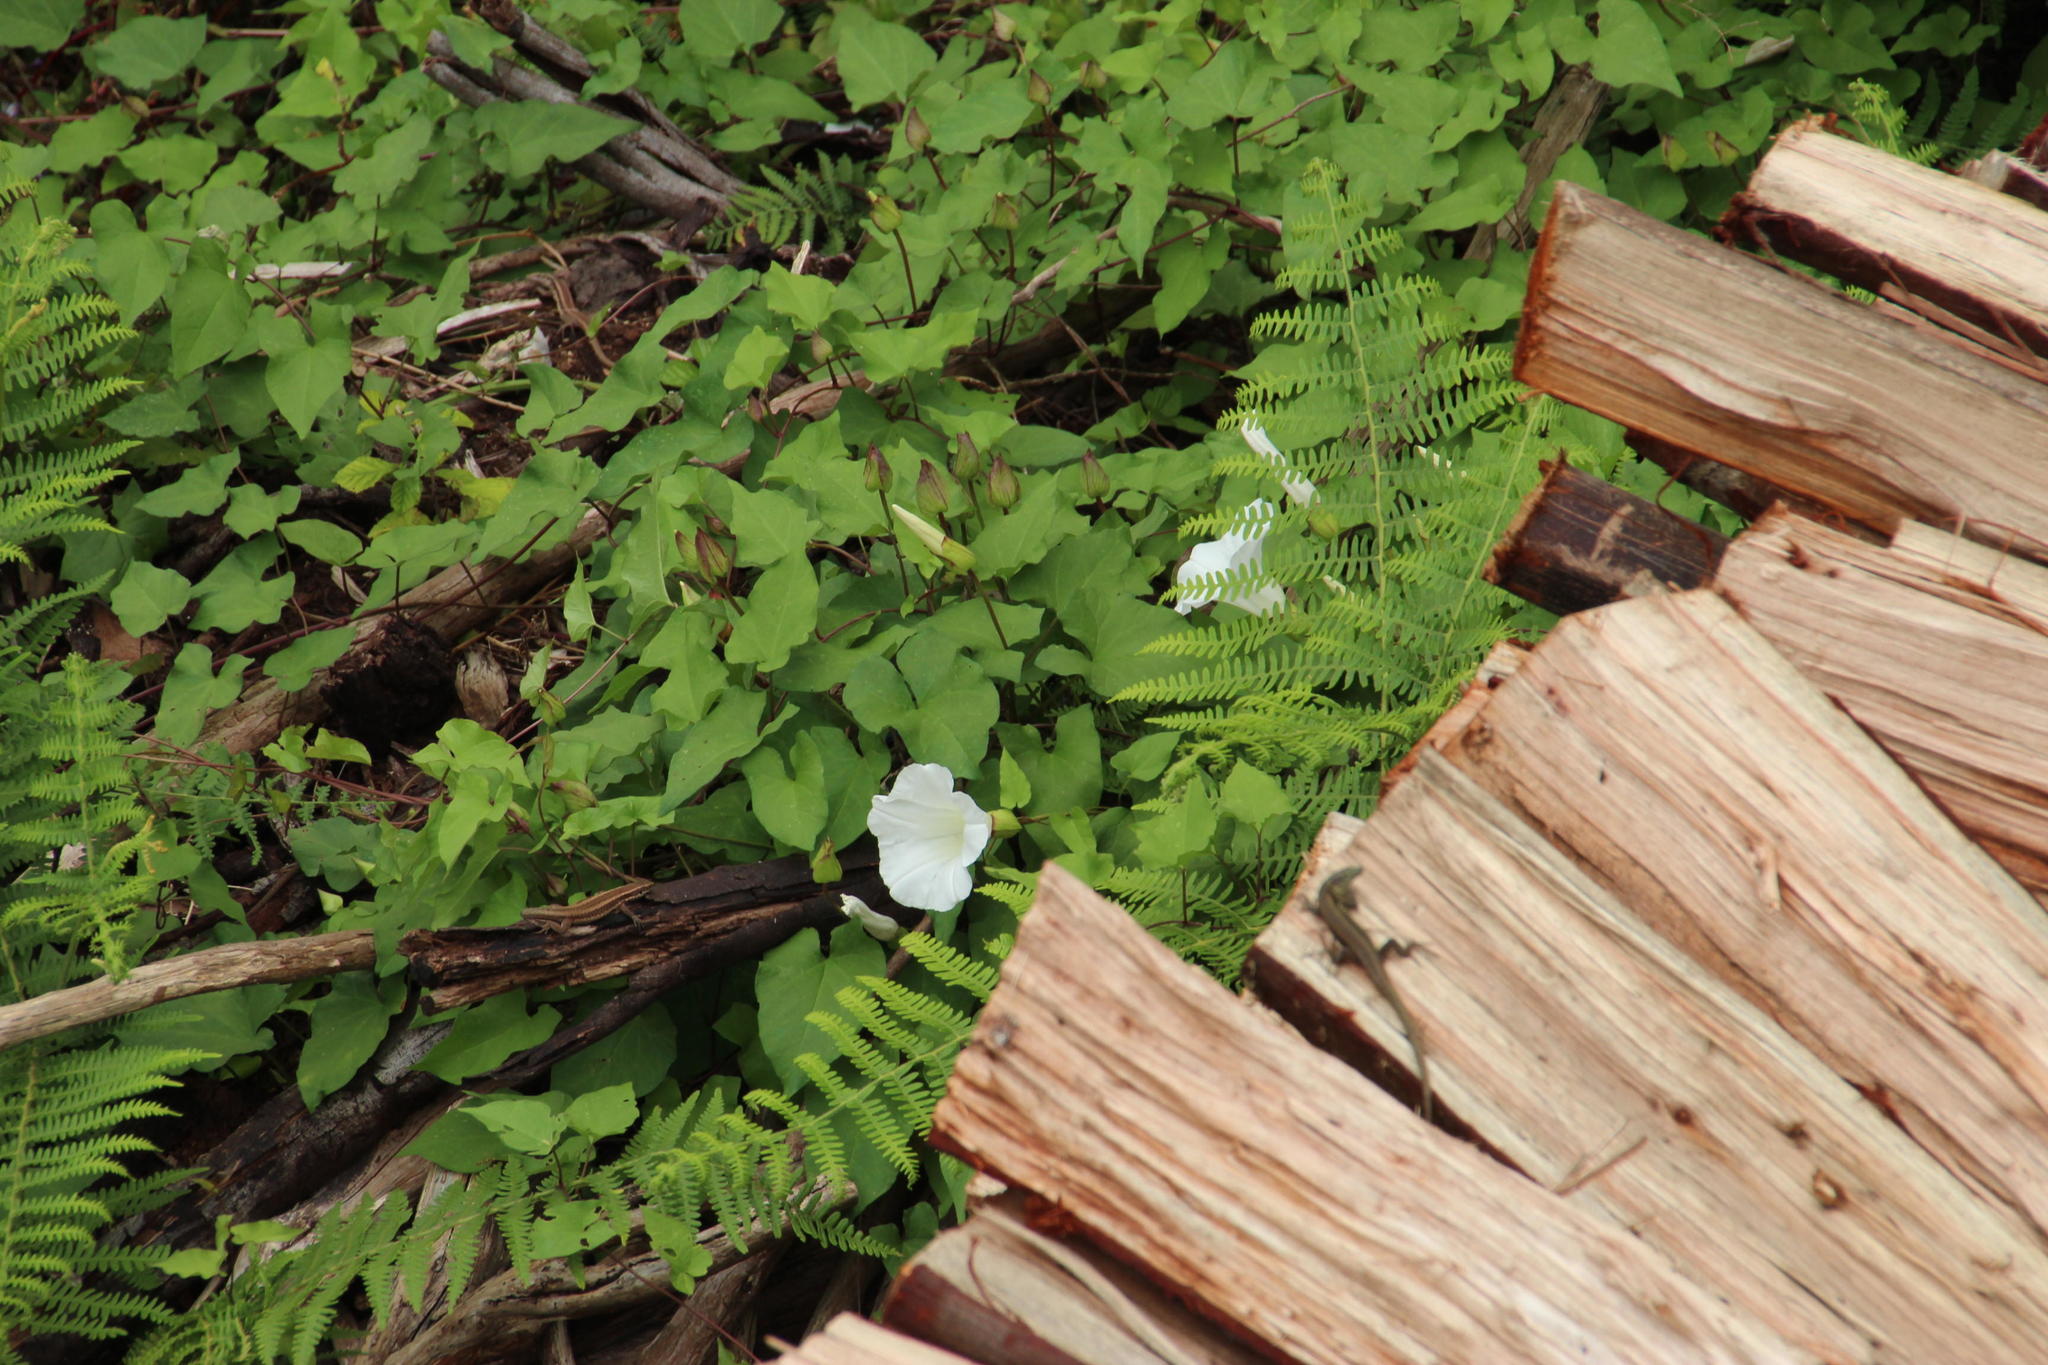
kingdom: Plantae
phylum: Tracheophyta
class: Magnoliopsida
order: Solanales
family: Convolvulaceae
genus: Calystegia
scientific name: Calystegia silvatica
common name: Large bindweed
